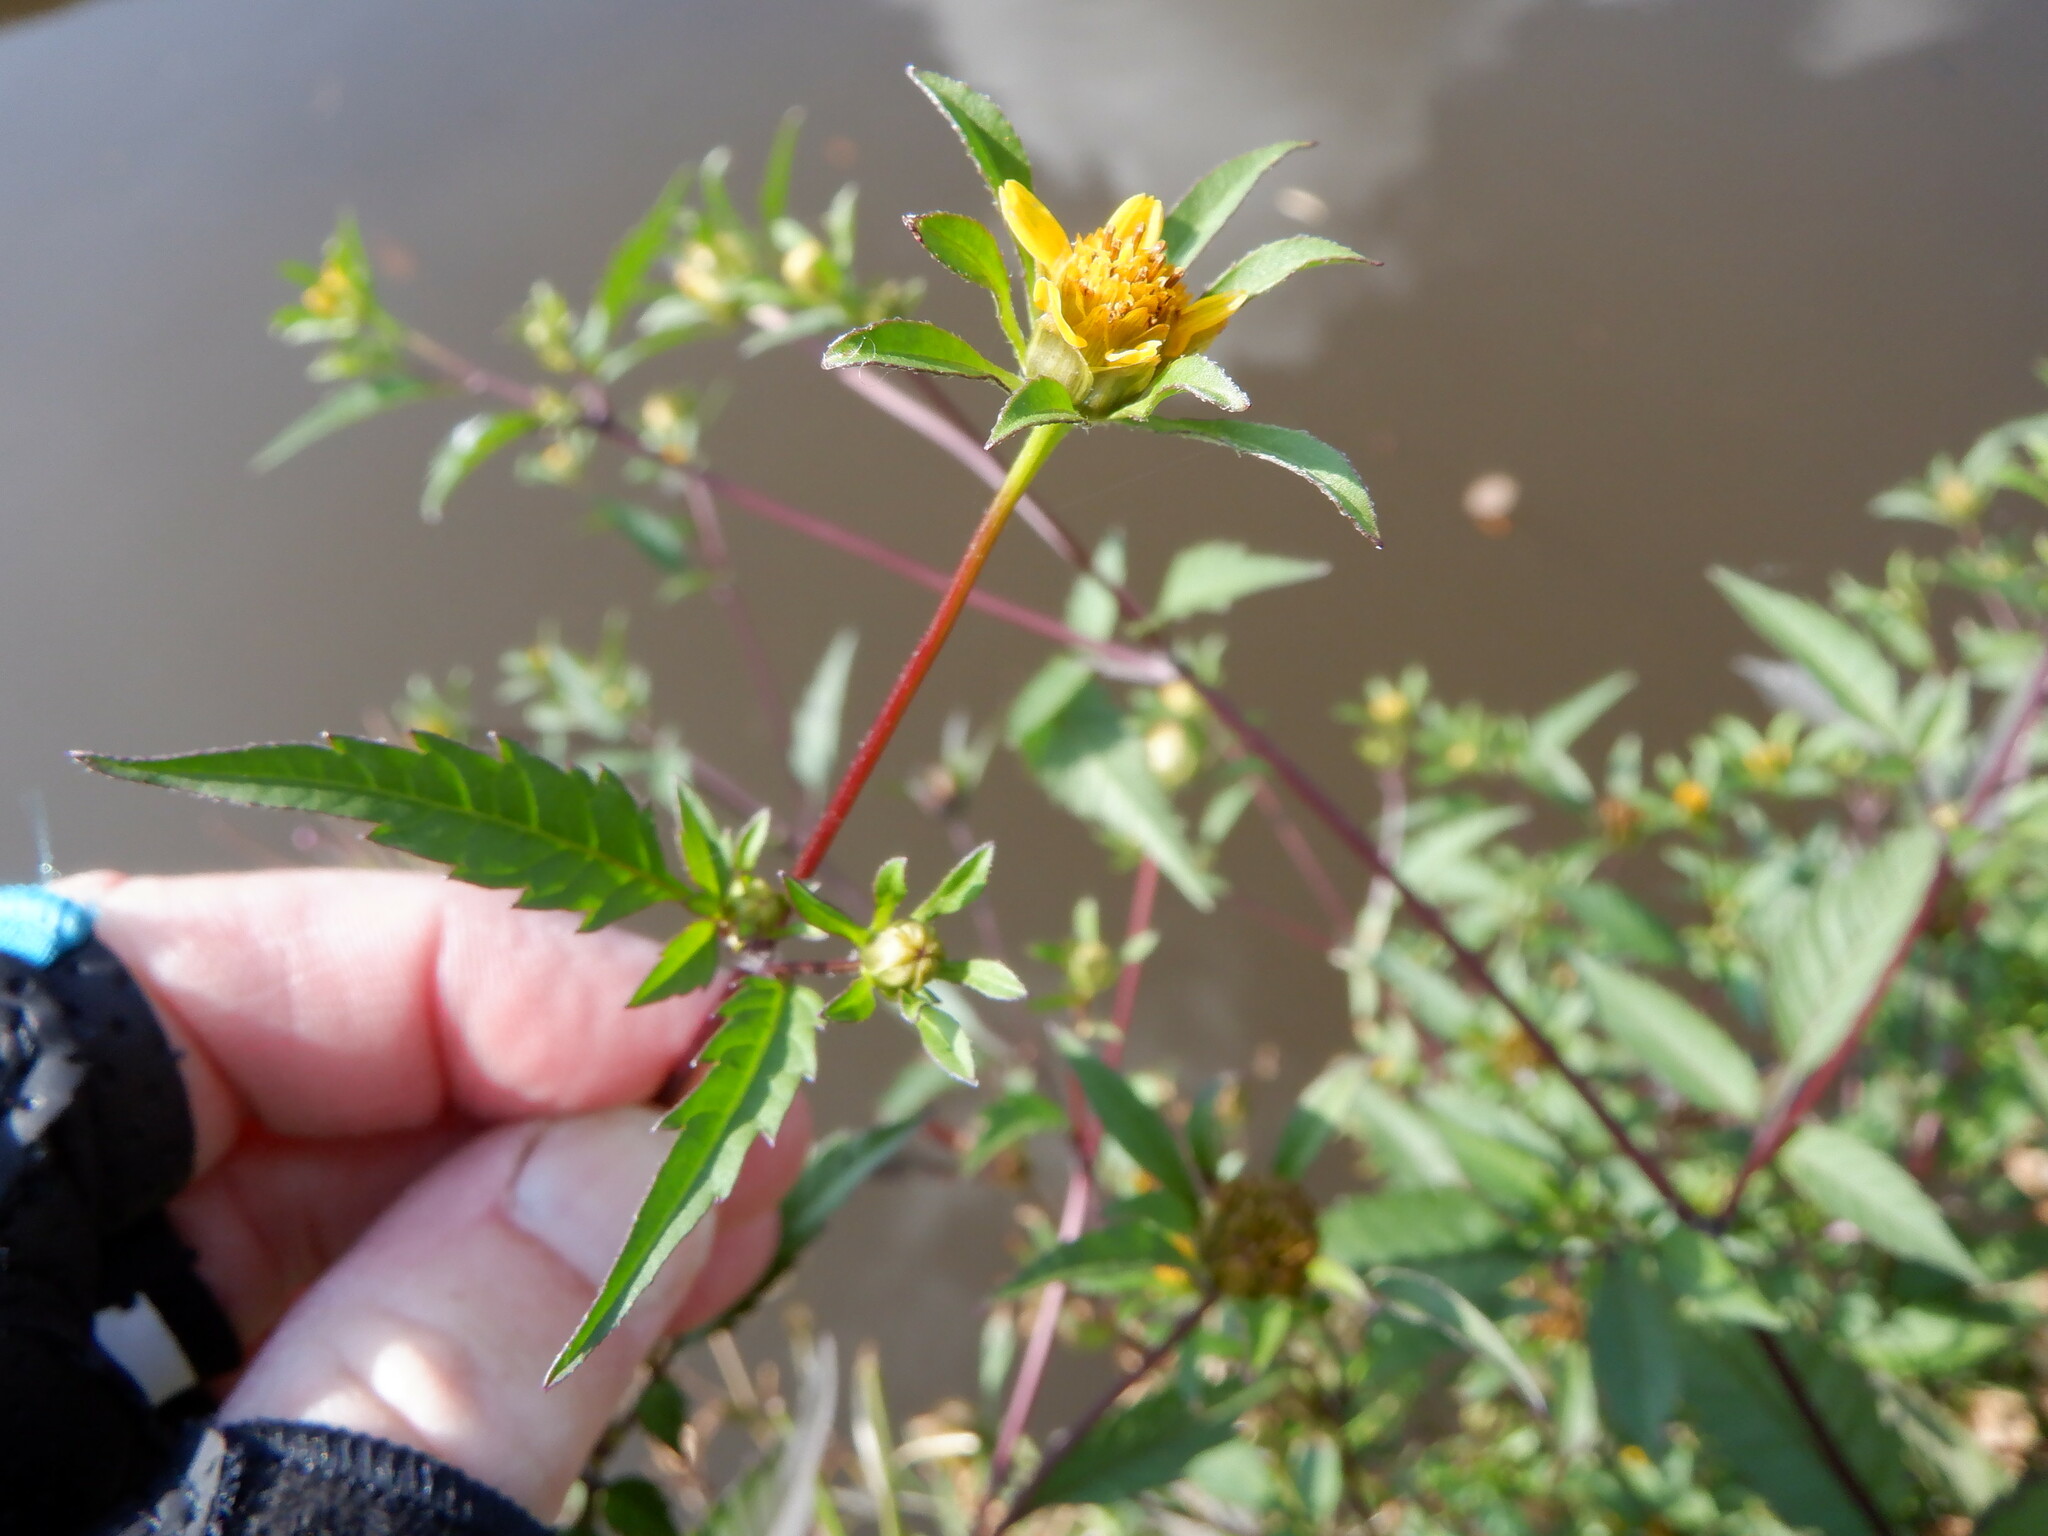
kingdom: Plantae
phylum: Tracheophyta
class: Magnoliopsida
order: Asterales
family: Asteraceae
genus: Bidens
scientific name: Bidens frondosa
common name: Beggarticks
